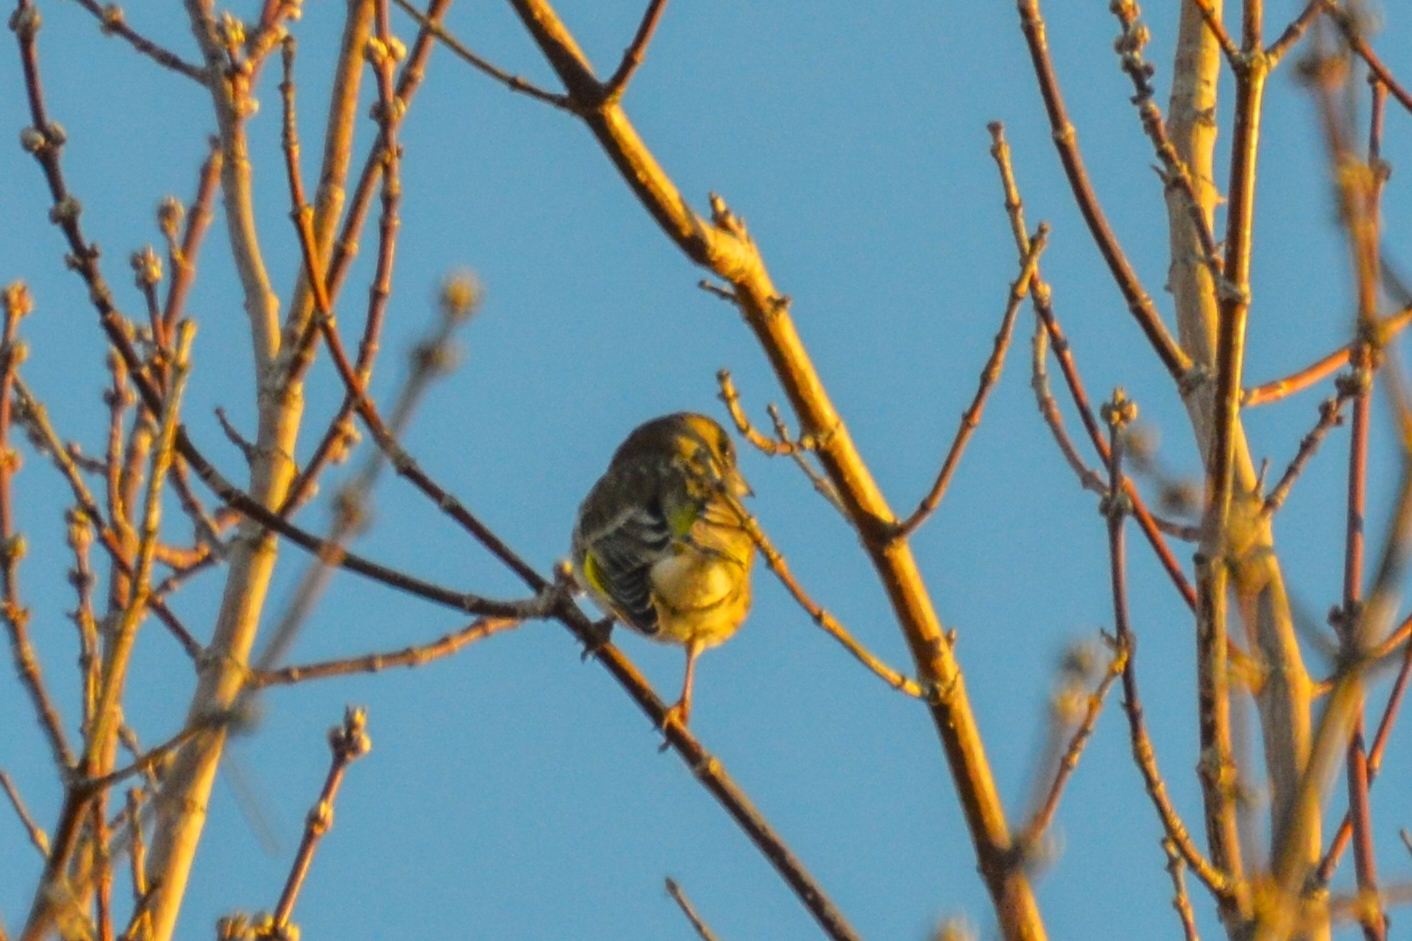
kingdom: Plantae
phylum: Tracheophyta
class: Liliopsida
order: Poales
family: Poaceae
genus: Chloris
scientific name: Chloris chloris
